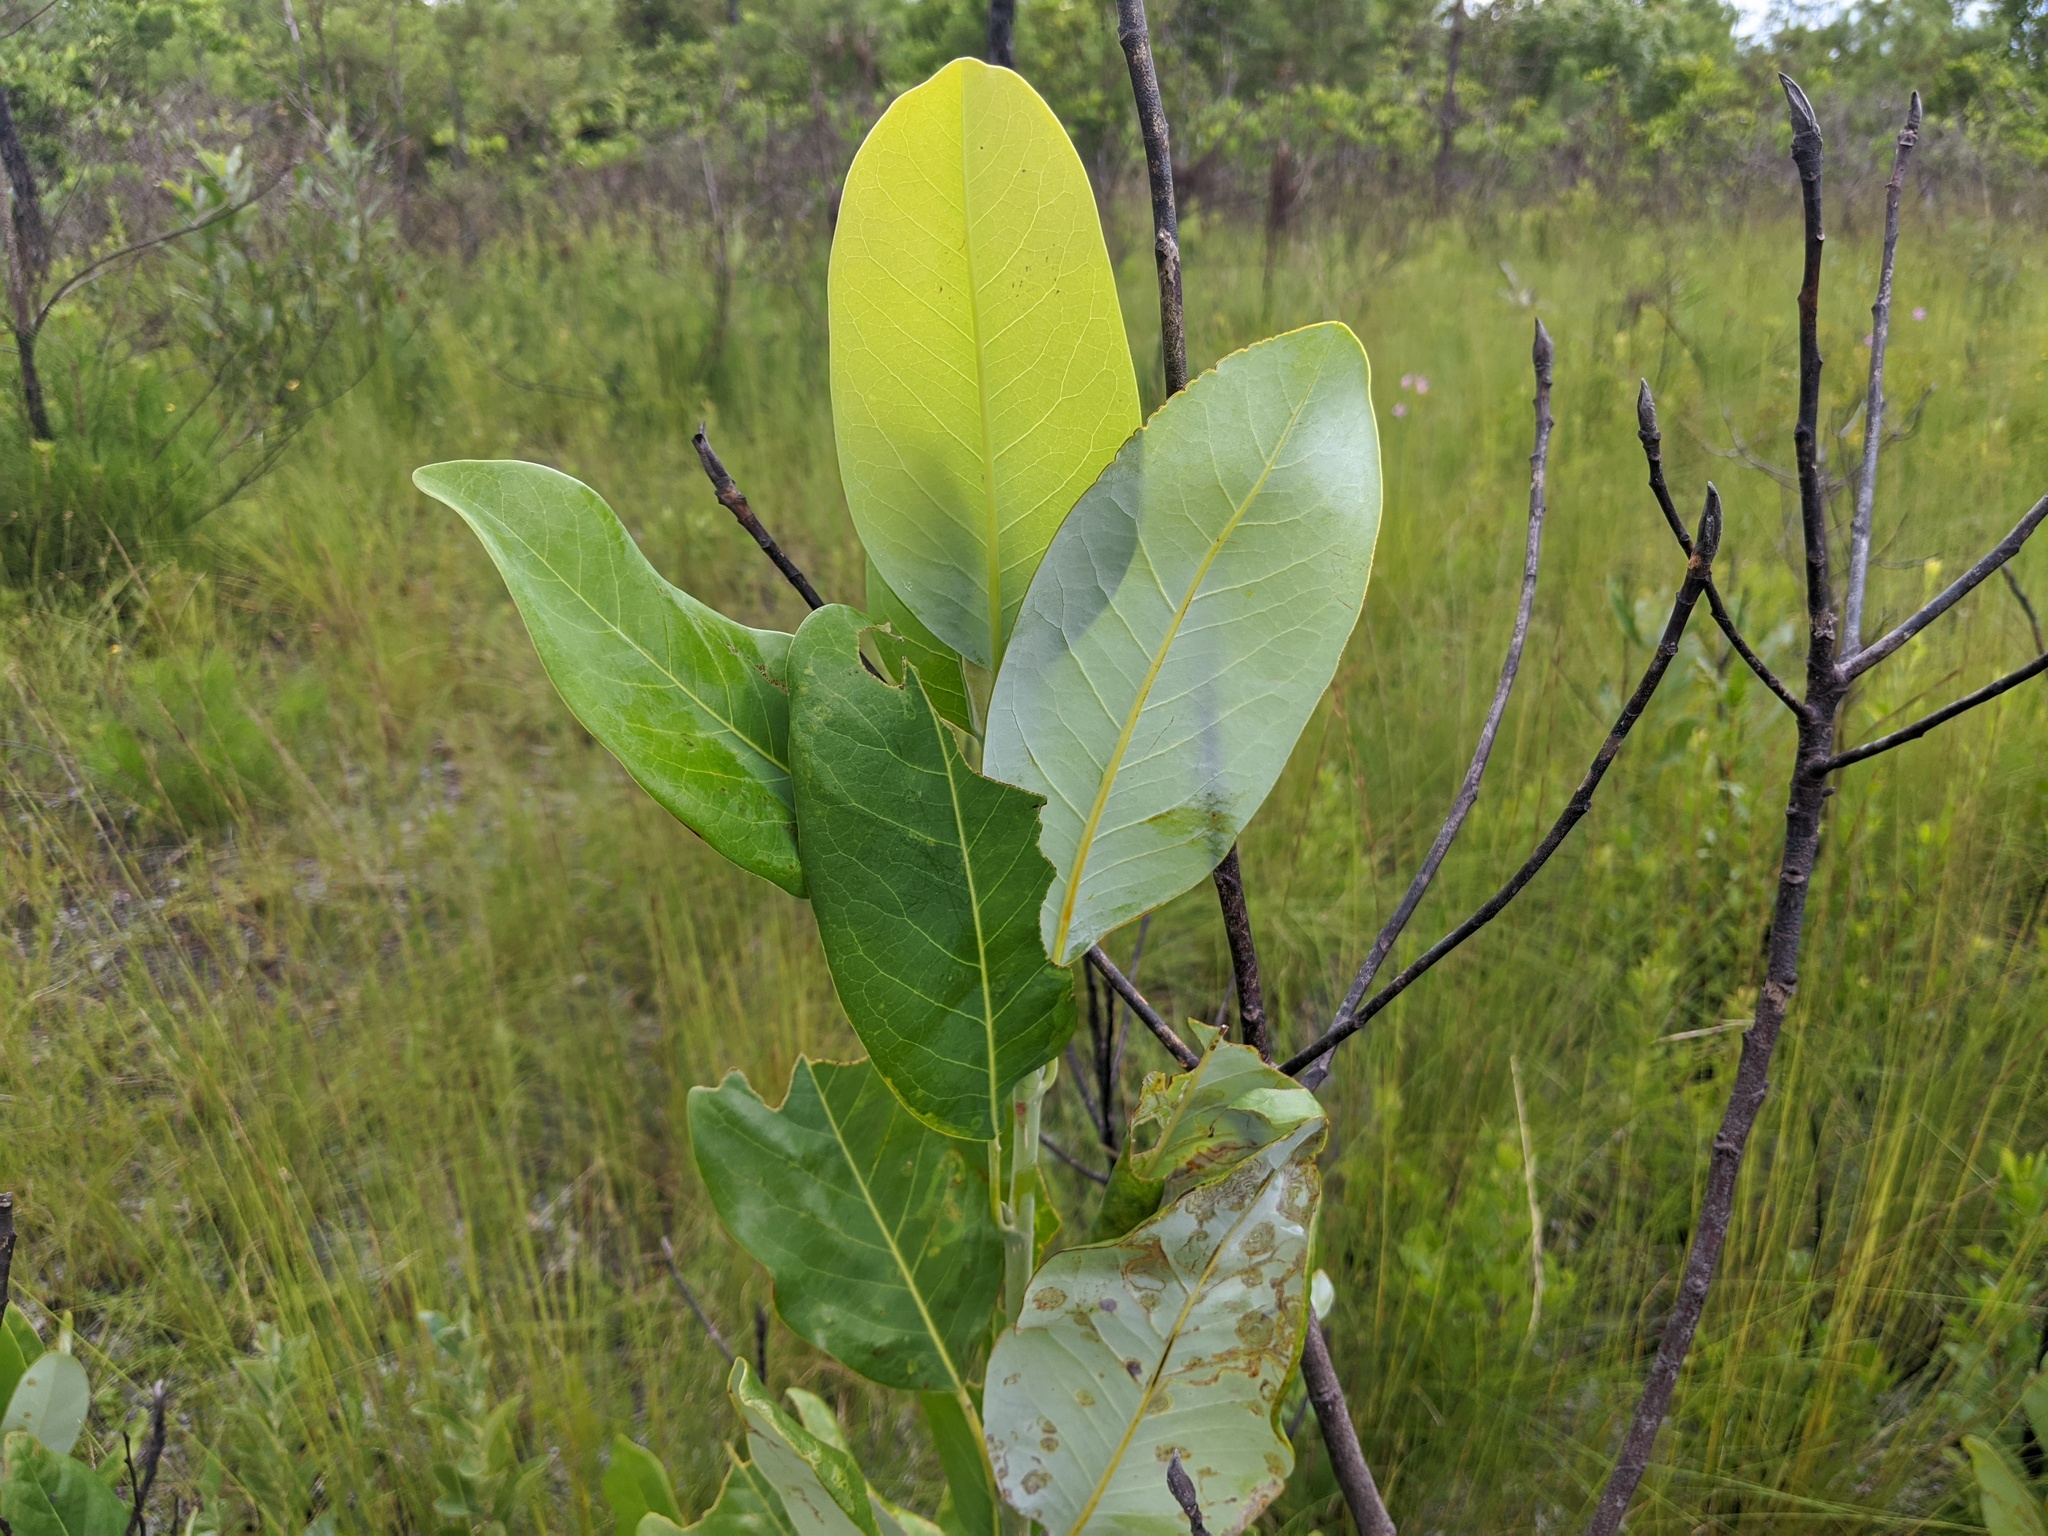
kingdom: Plantae
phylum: Tracheophyta
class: Magnoliopsida
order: Magnoliales
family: Magnoliaceae
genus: Magnolia
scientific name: Magnolia virginiana
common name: Swamp bay
